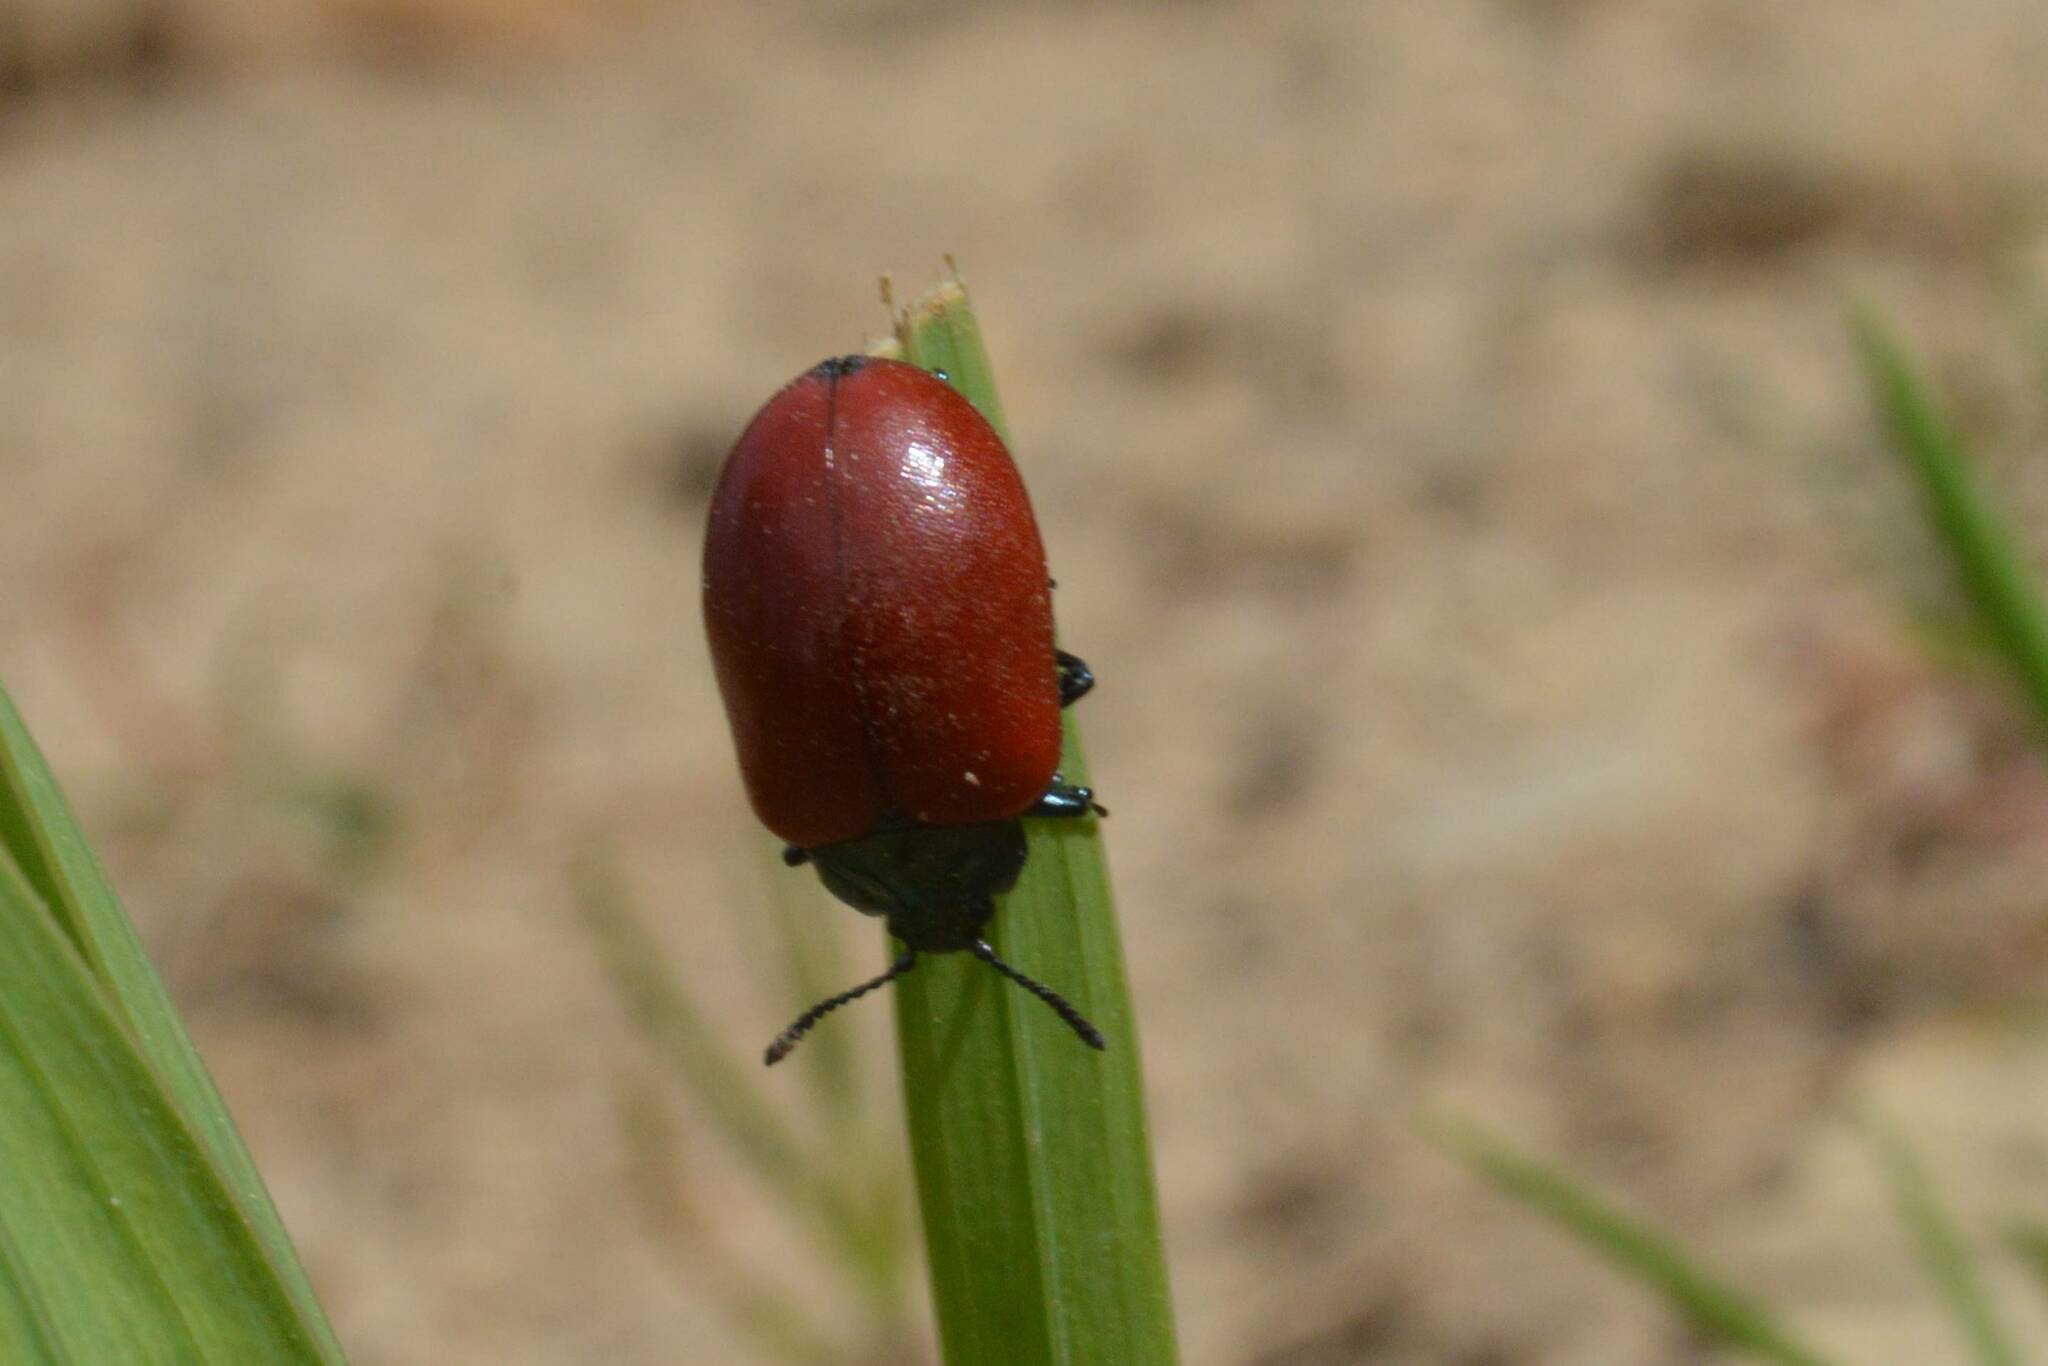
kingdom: Animalia
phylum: Arthropoda
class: Insecta
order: Coleoptera
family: Chrysomelidae
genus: Chrysomela
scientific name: Chrysomela populi
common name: Red poplar leaf beetle
